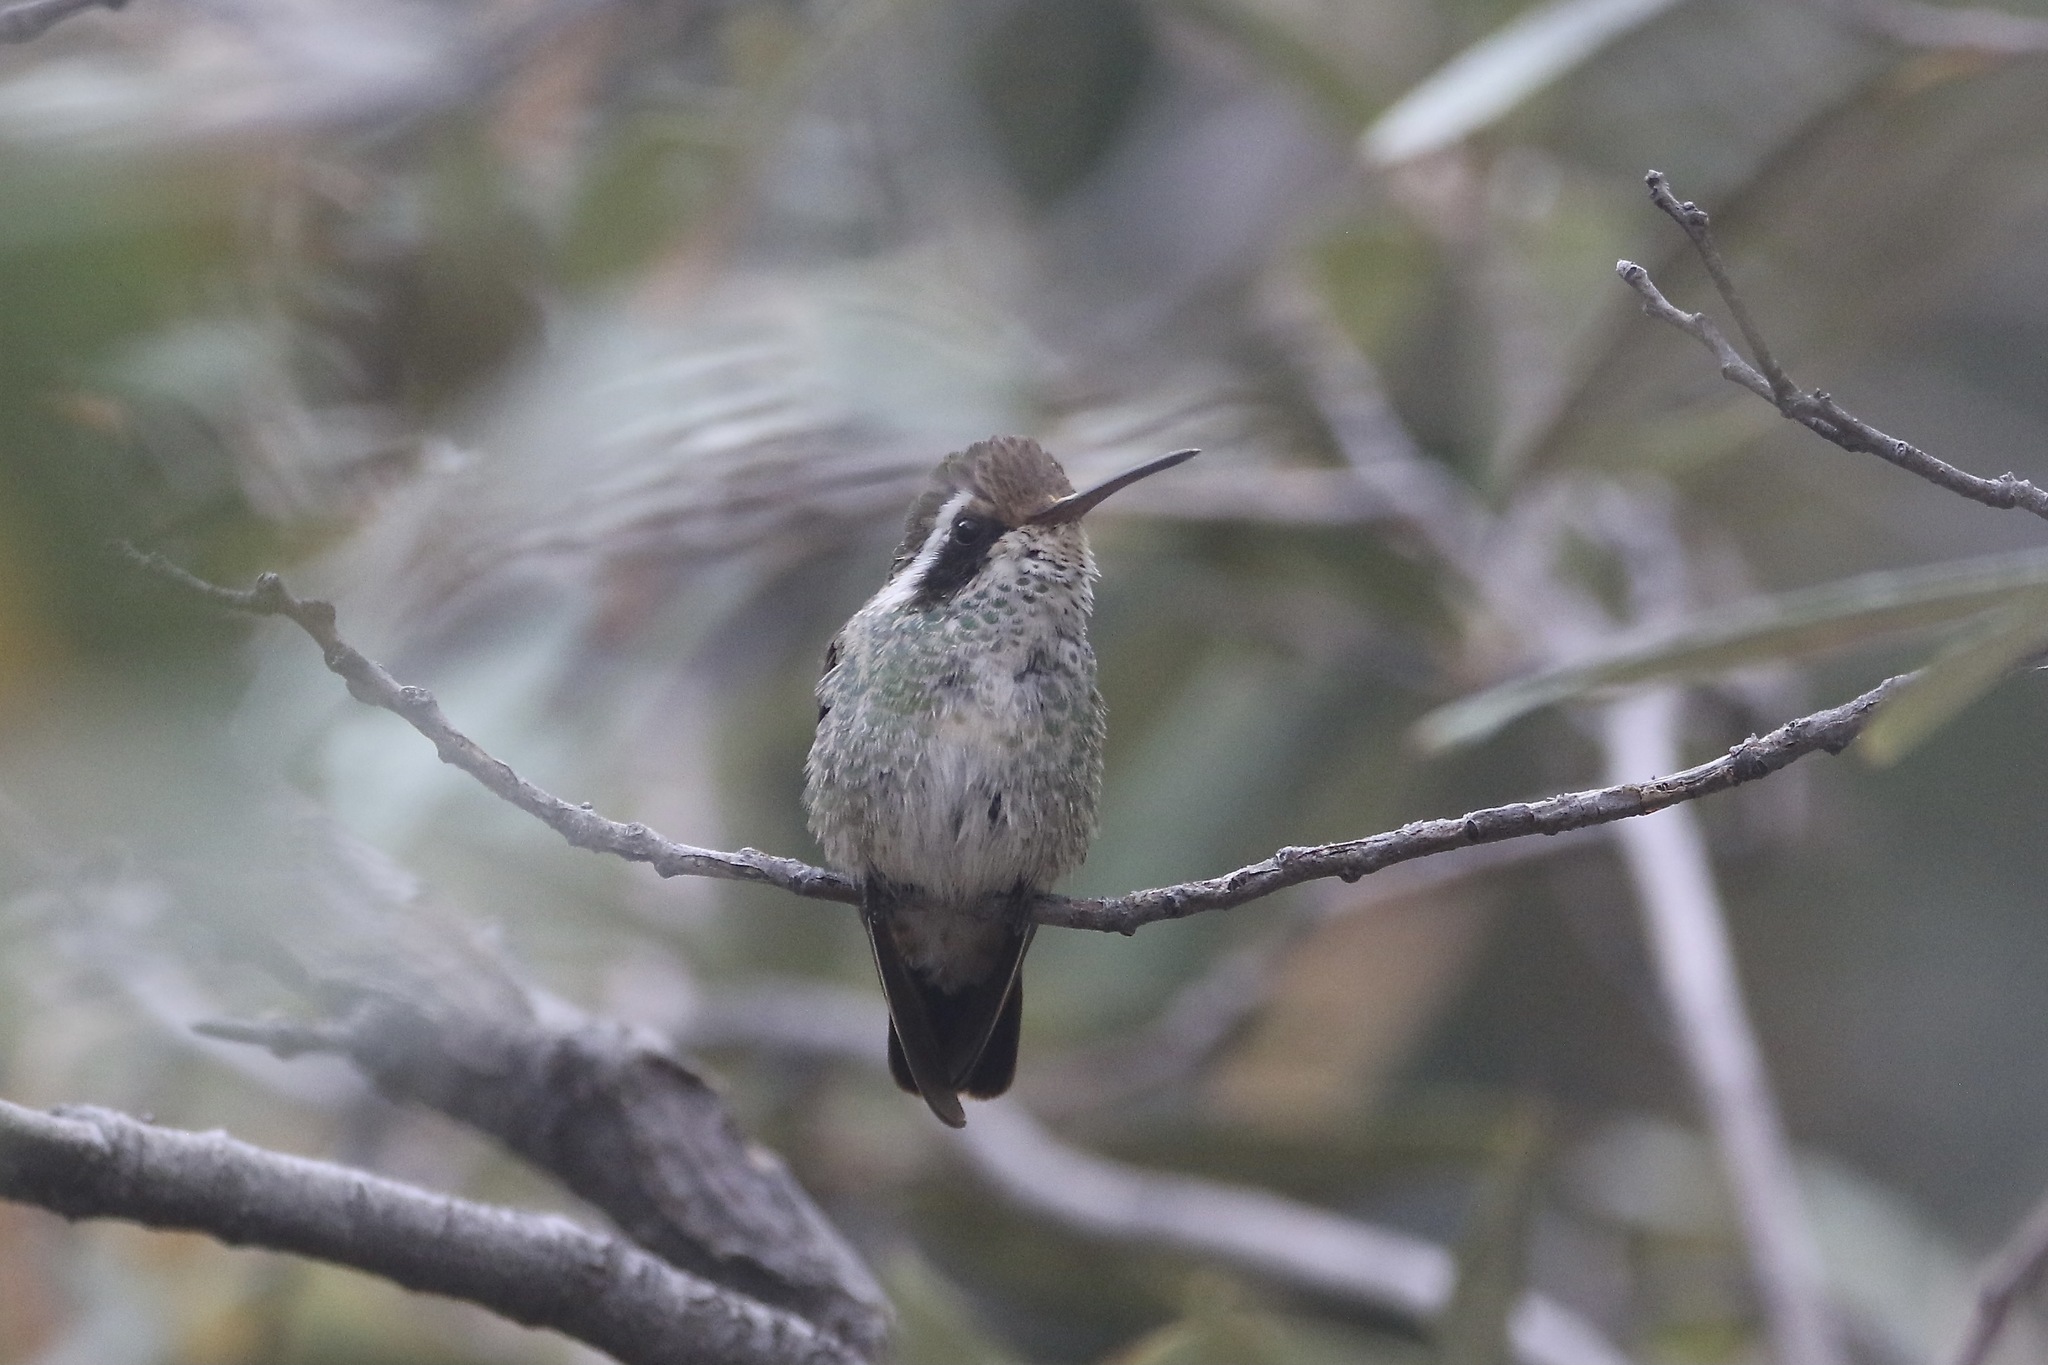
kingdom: Animalia
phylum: Chordata
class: Aves
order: Apodiformes
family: Trochilidae
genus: Basilinna
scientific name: Basilinna leucotis
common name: White-eared hummingbird
